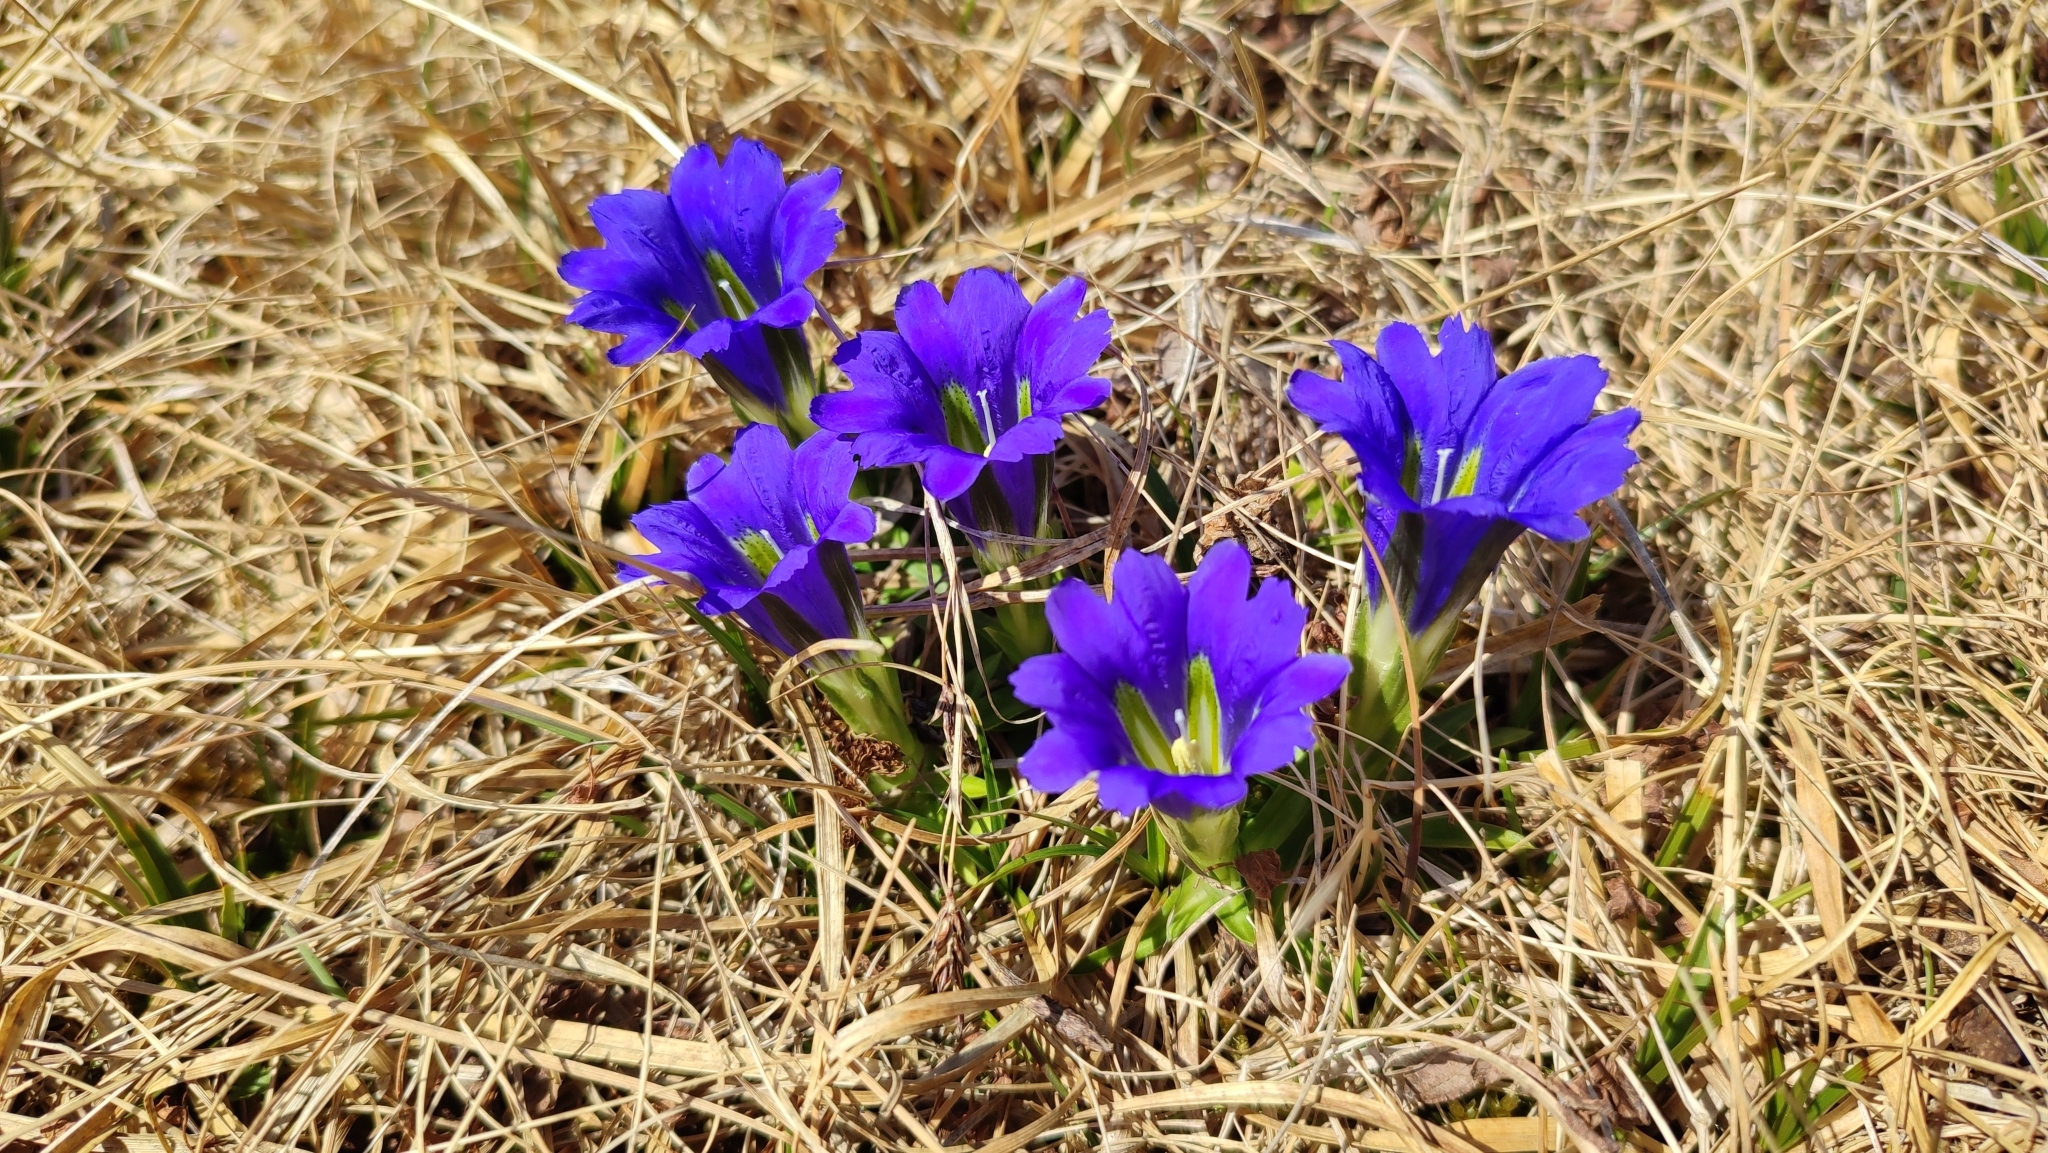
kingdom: Plantae
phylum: Tracheophyta
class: Magnoliopsida
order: Gentianales
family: Gentianaceae
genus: Gentiana
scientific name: Gentiana grandiflora
